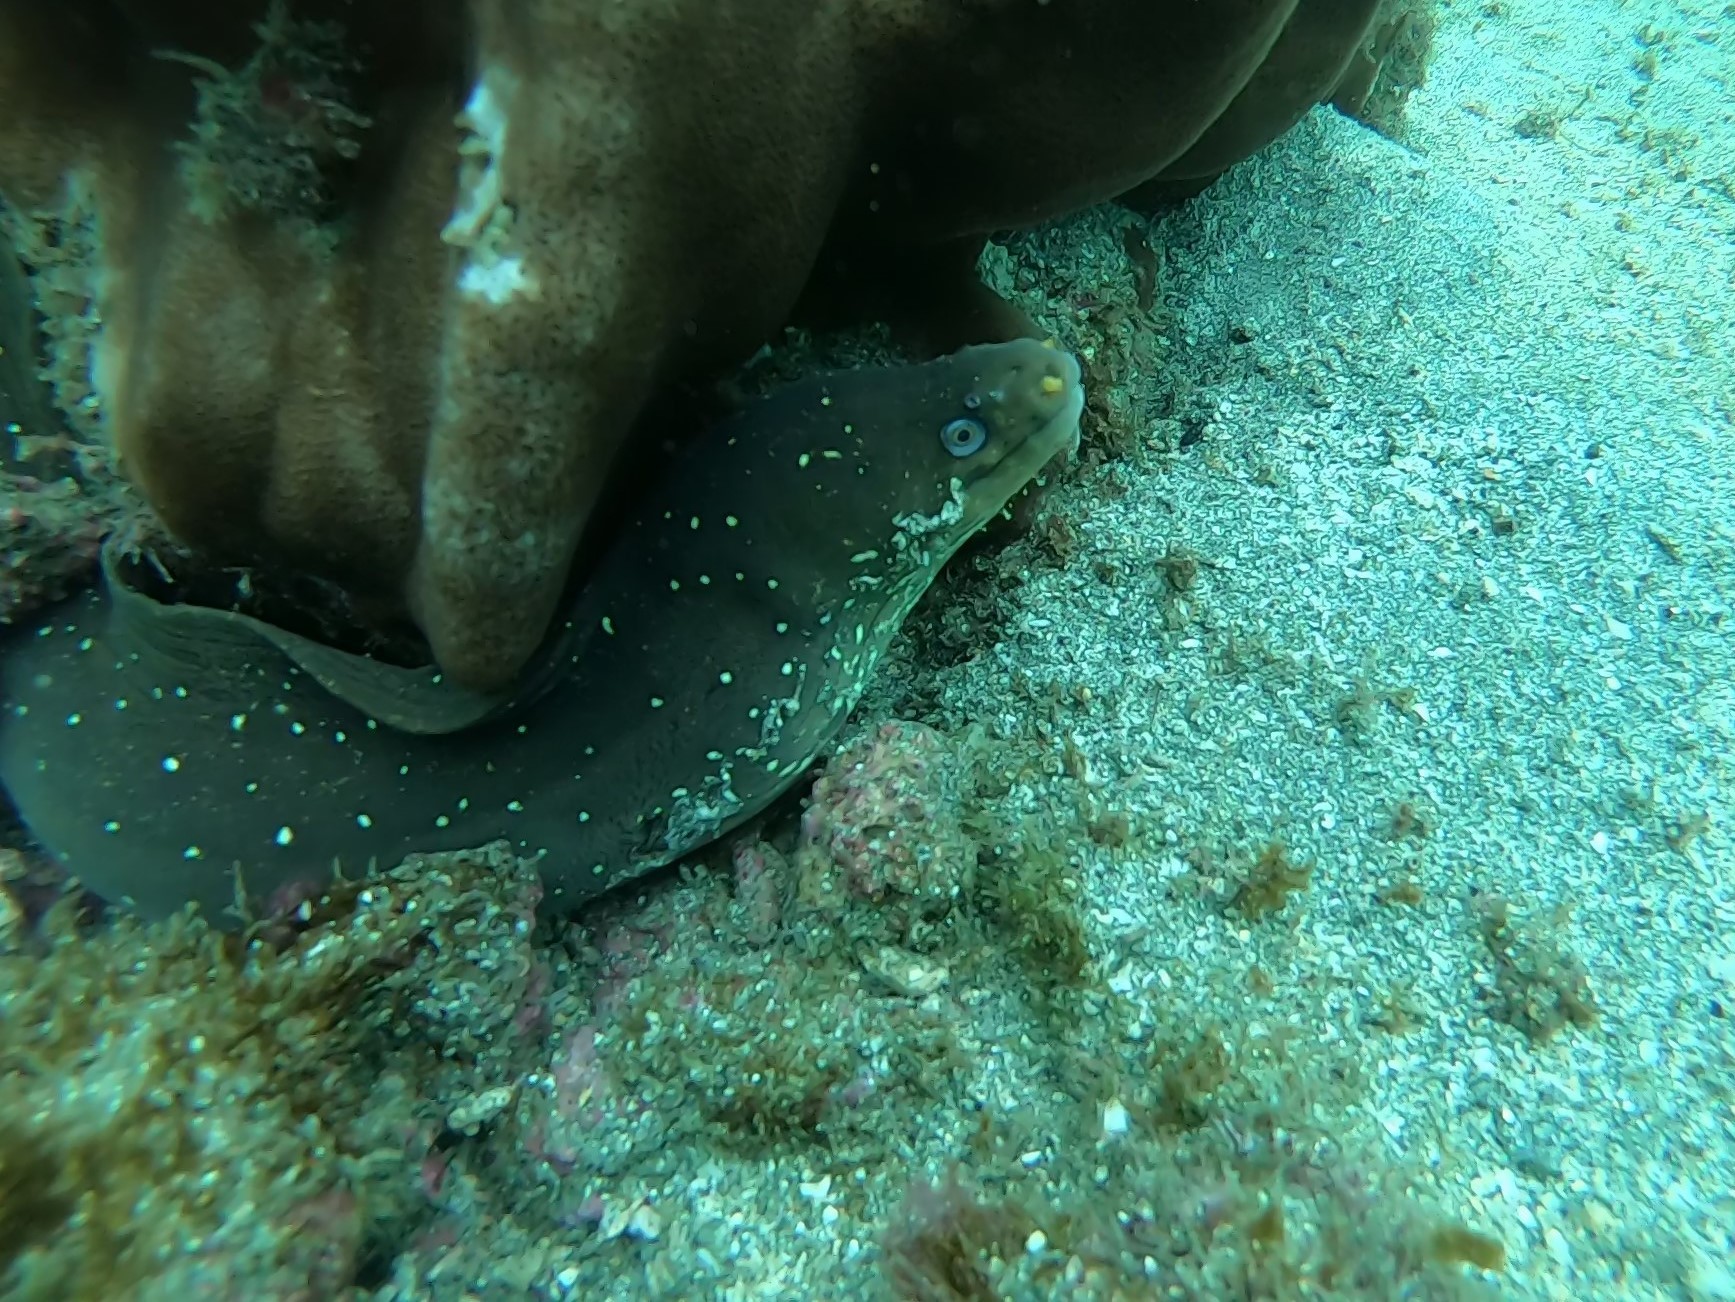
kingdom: Animalia
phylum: Chordata
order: Anguilliformes
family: Muraenidae
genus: Echidna
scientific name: Echidna nocturna
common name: Palenose moray
